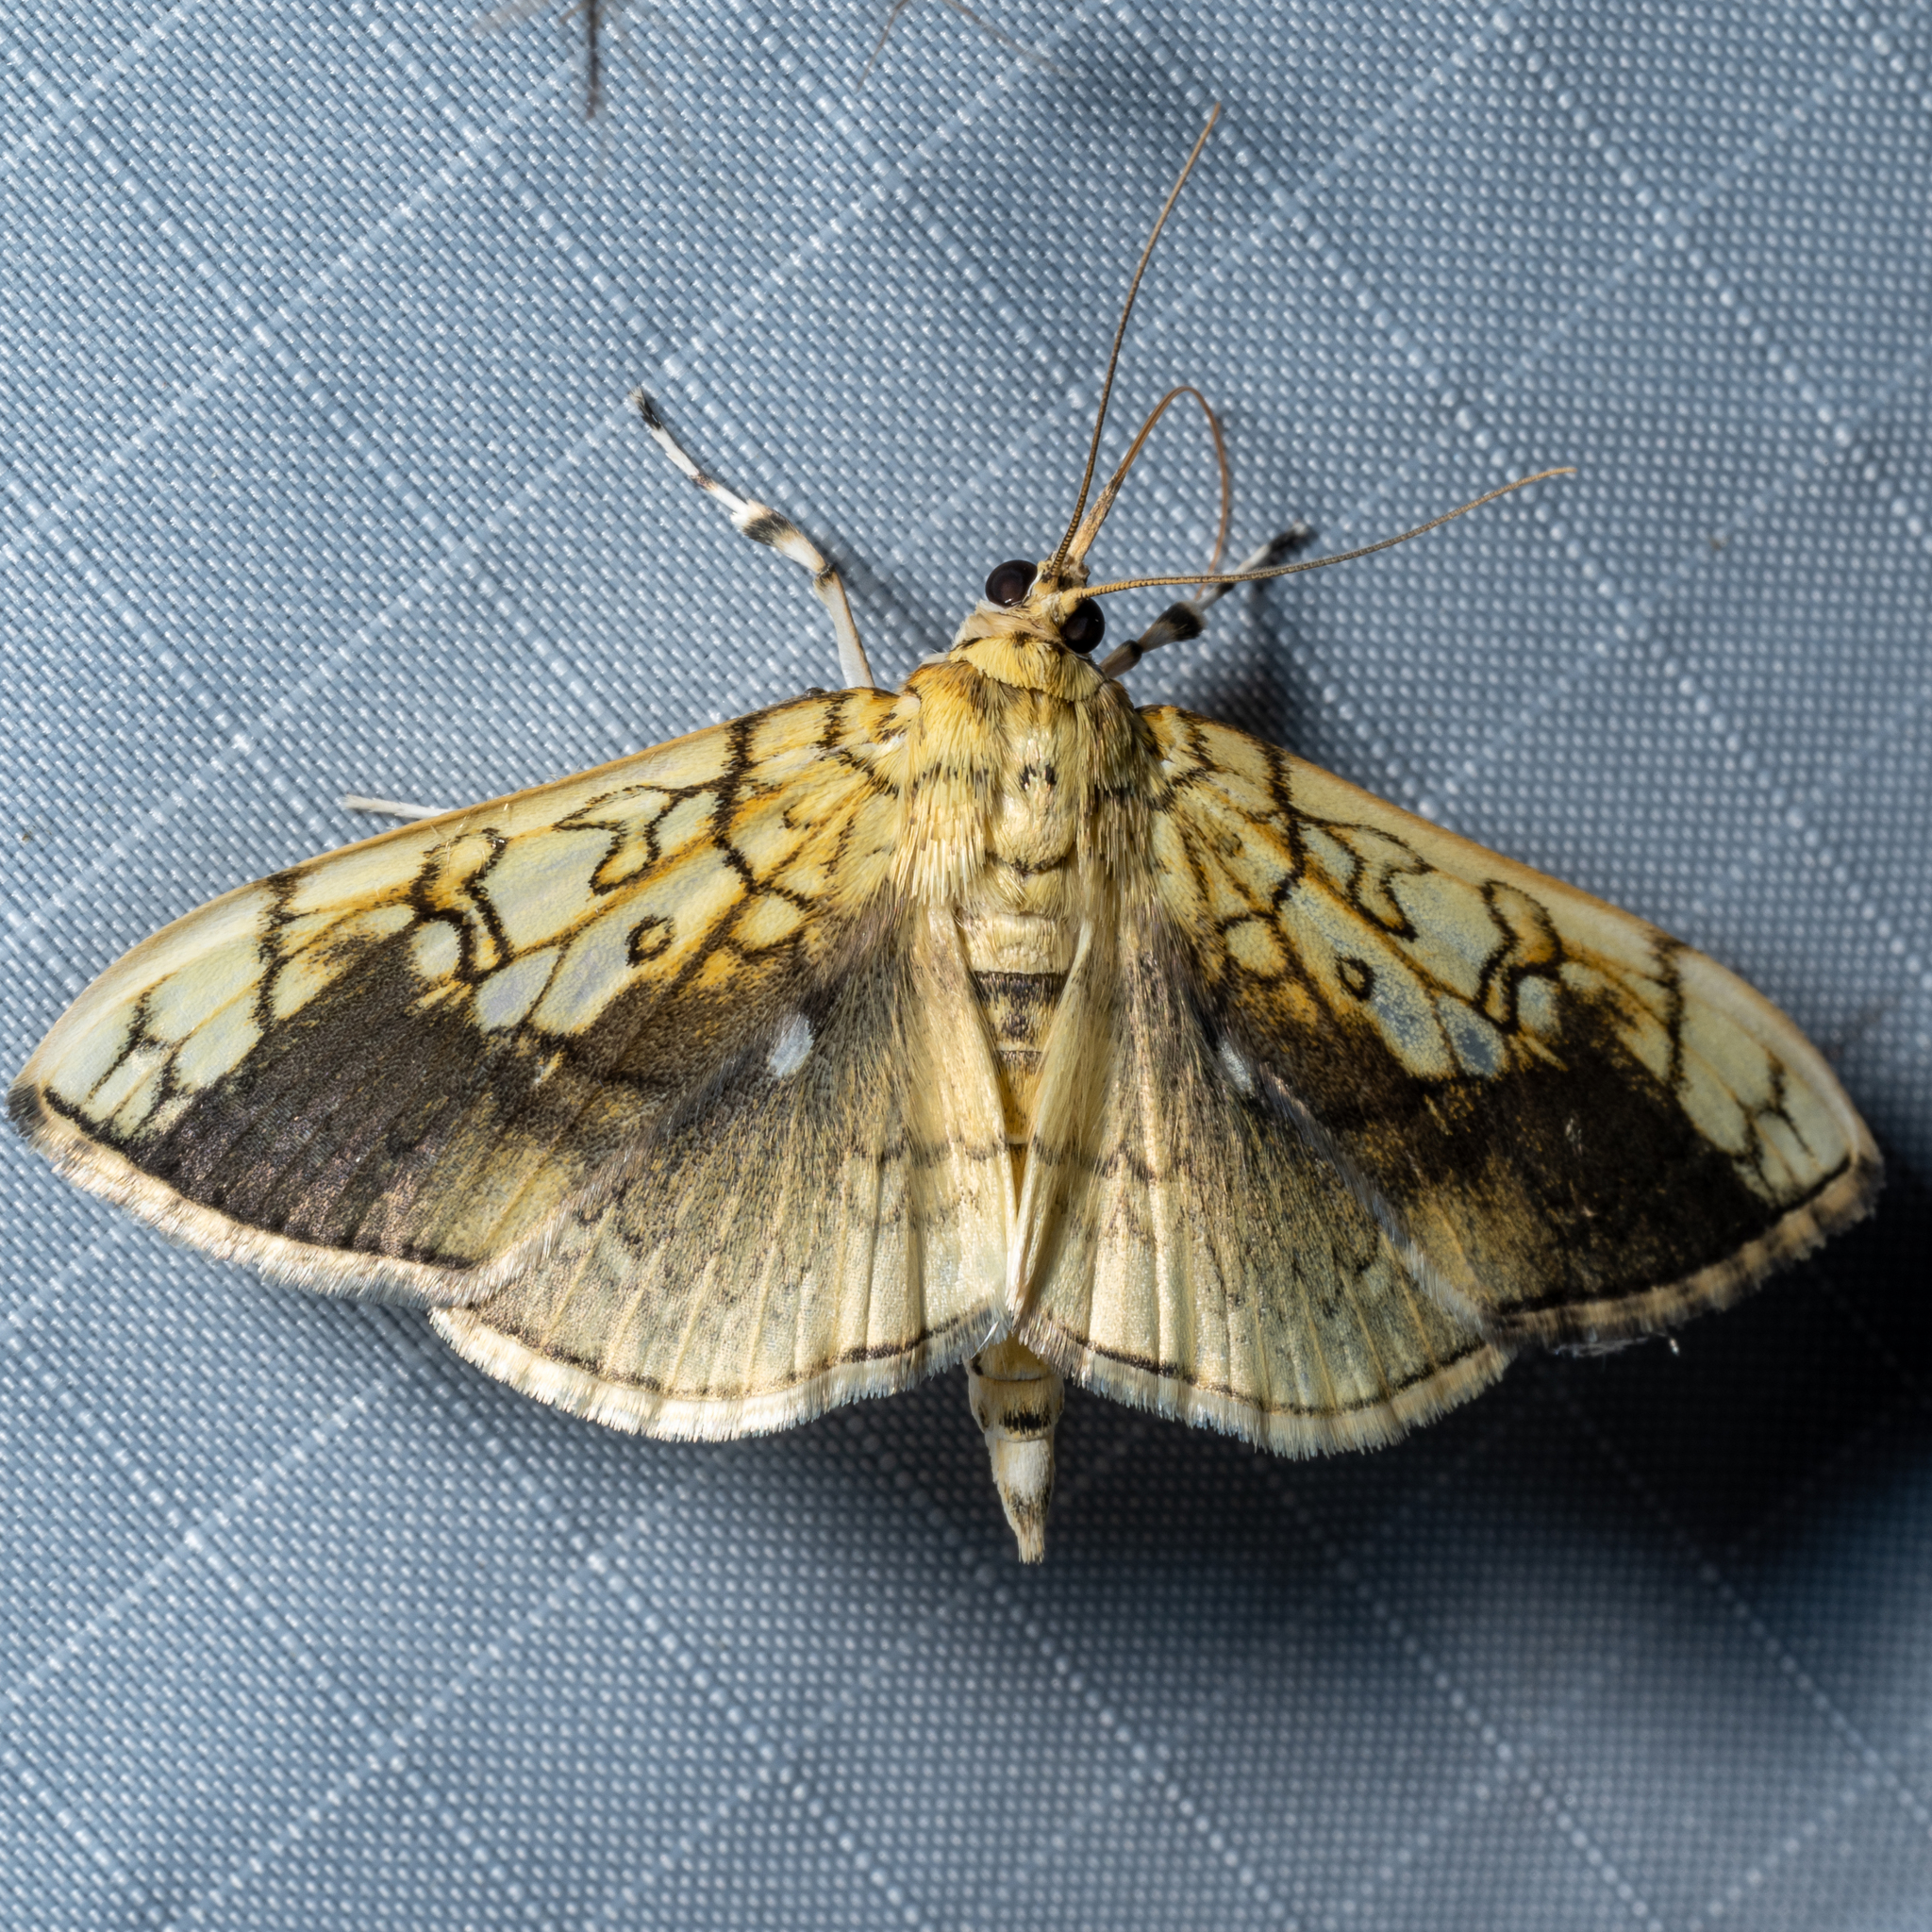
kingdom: Animalia
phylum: Arthropoda
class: Insecta
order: Lepidoptera
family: Crambidae
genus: Pantographa
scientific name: Pantographa limata
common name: Basswood leafroller moth
